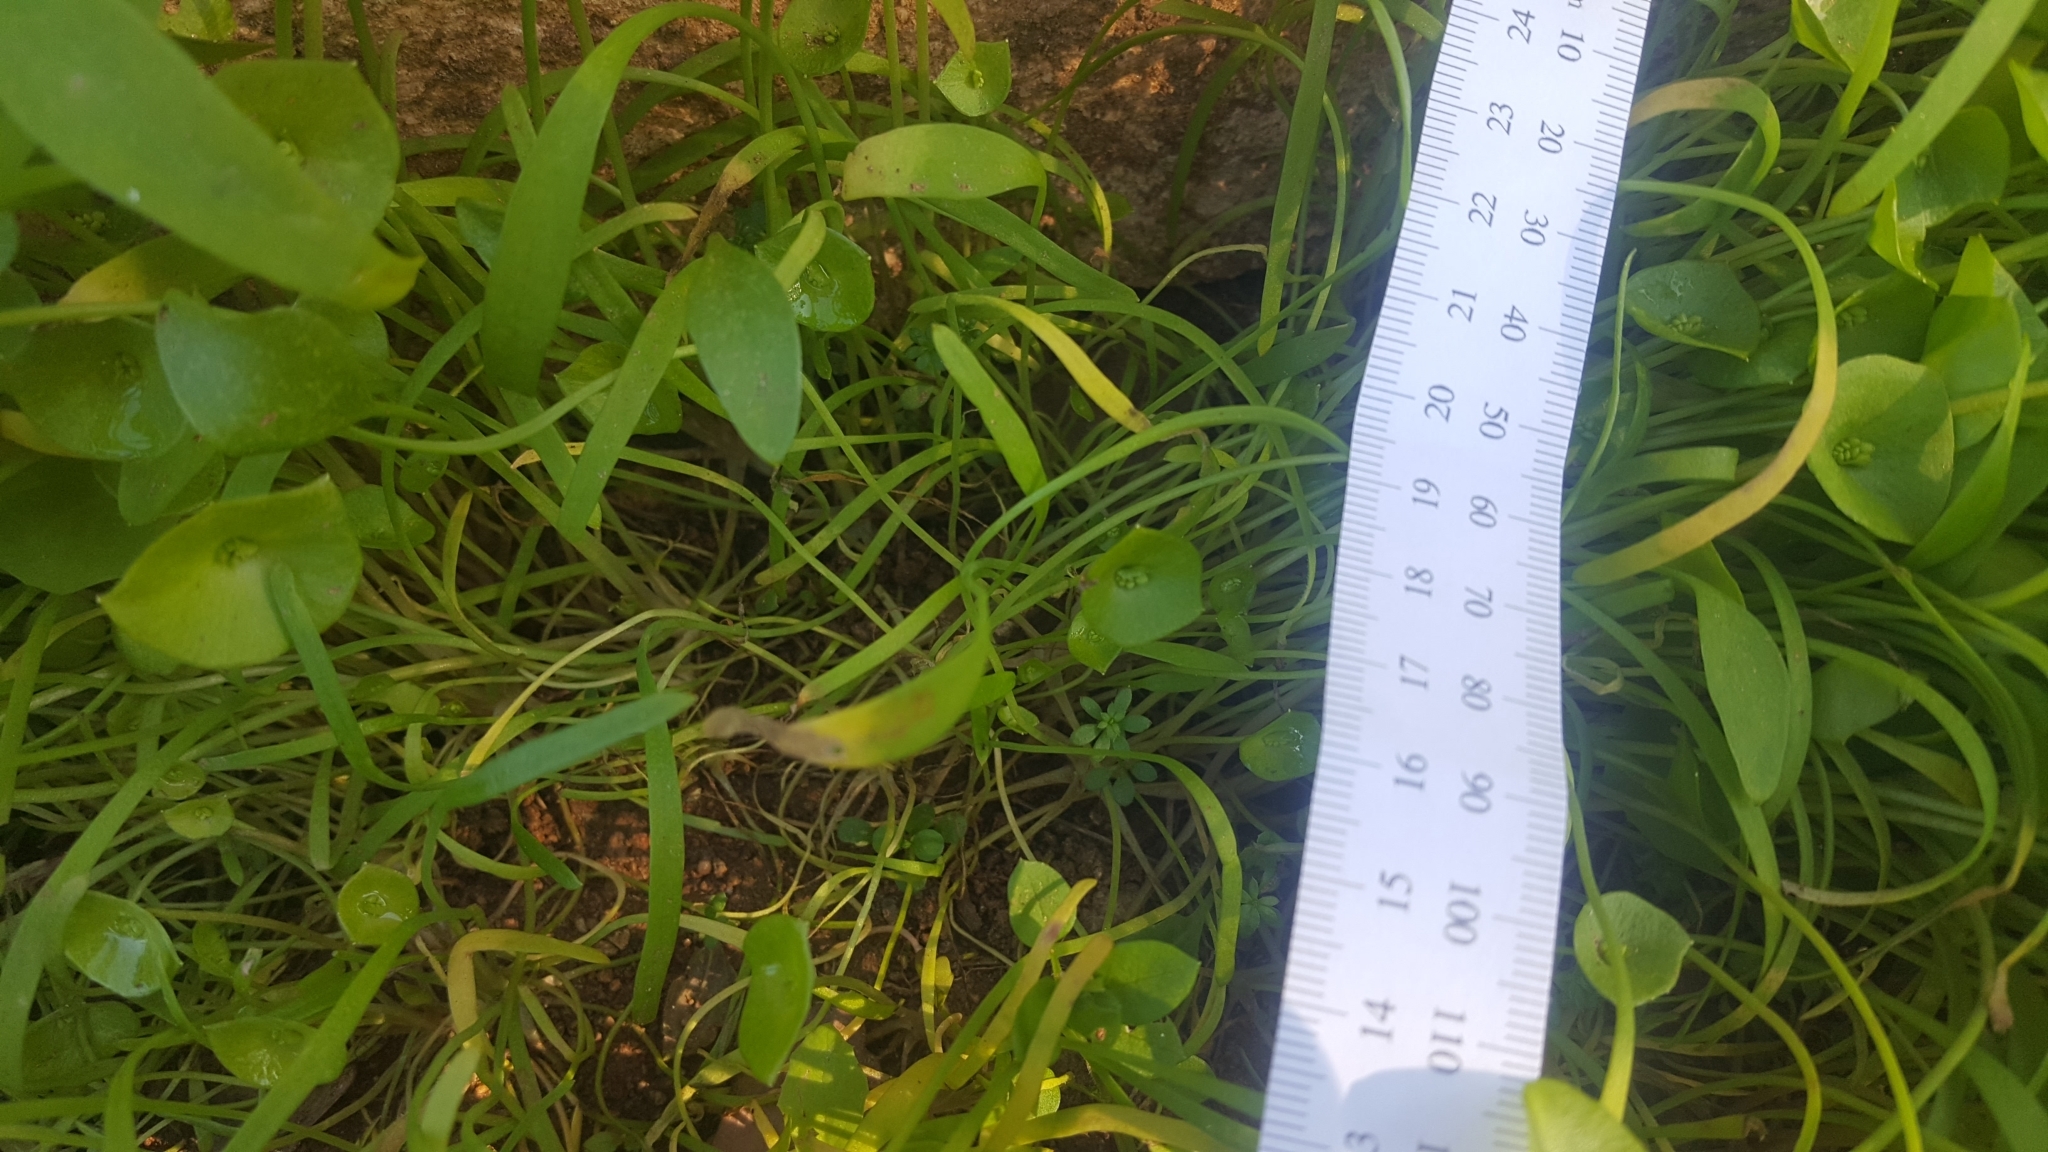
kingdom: Plantae
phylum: Tracheophyta
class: Magnoliopsida
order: Caryophyllales
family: Montiaceae
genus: Claytonia
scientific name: Claytonia parviflora
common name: Indian-lettuce
